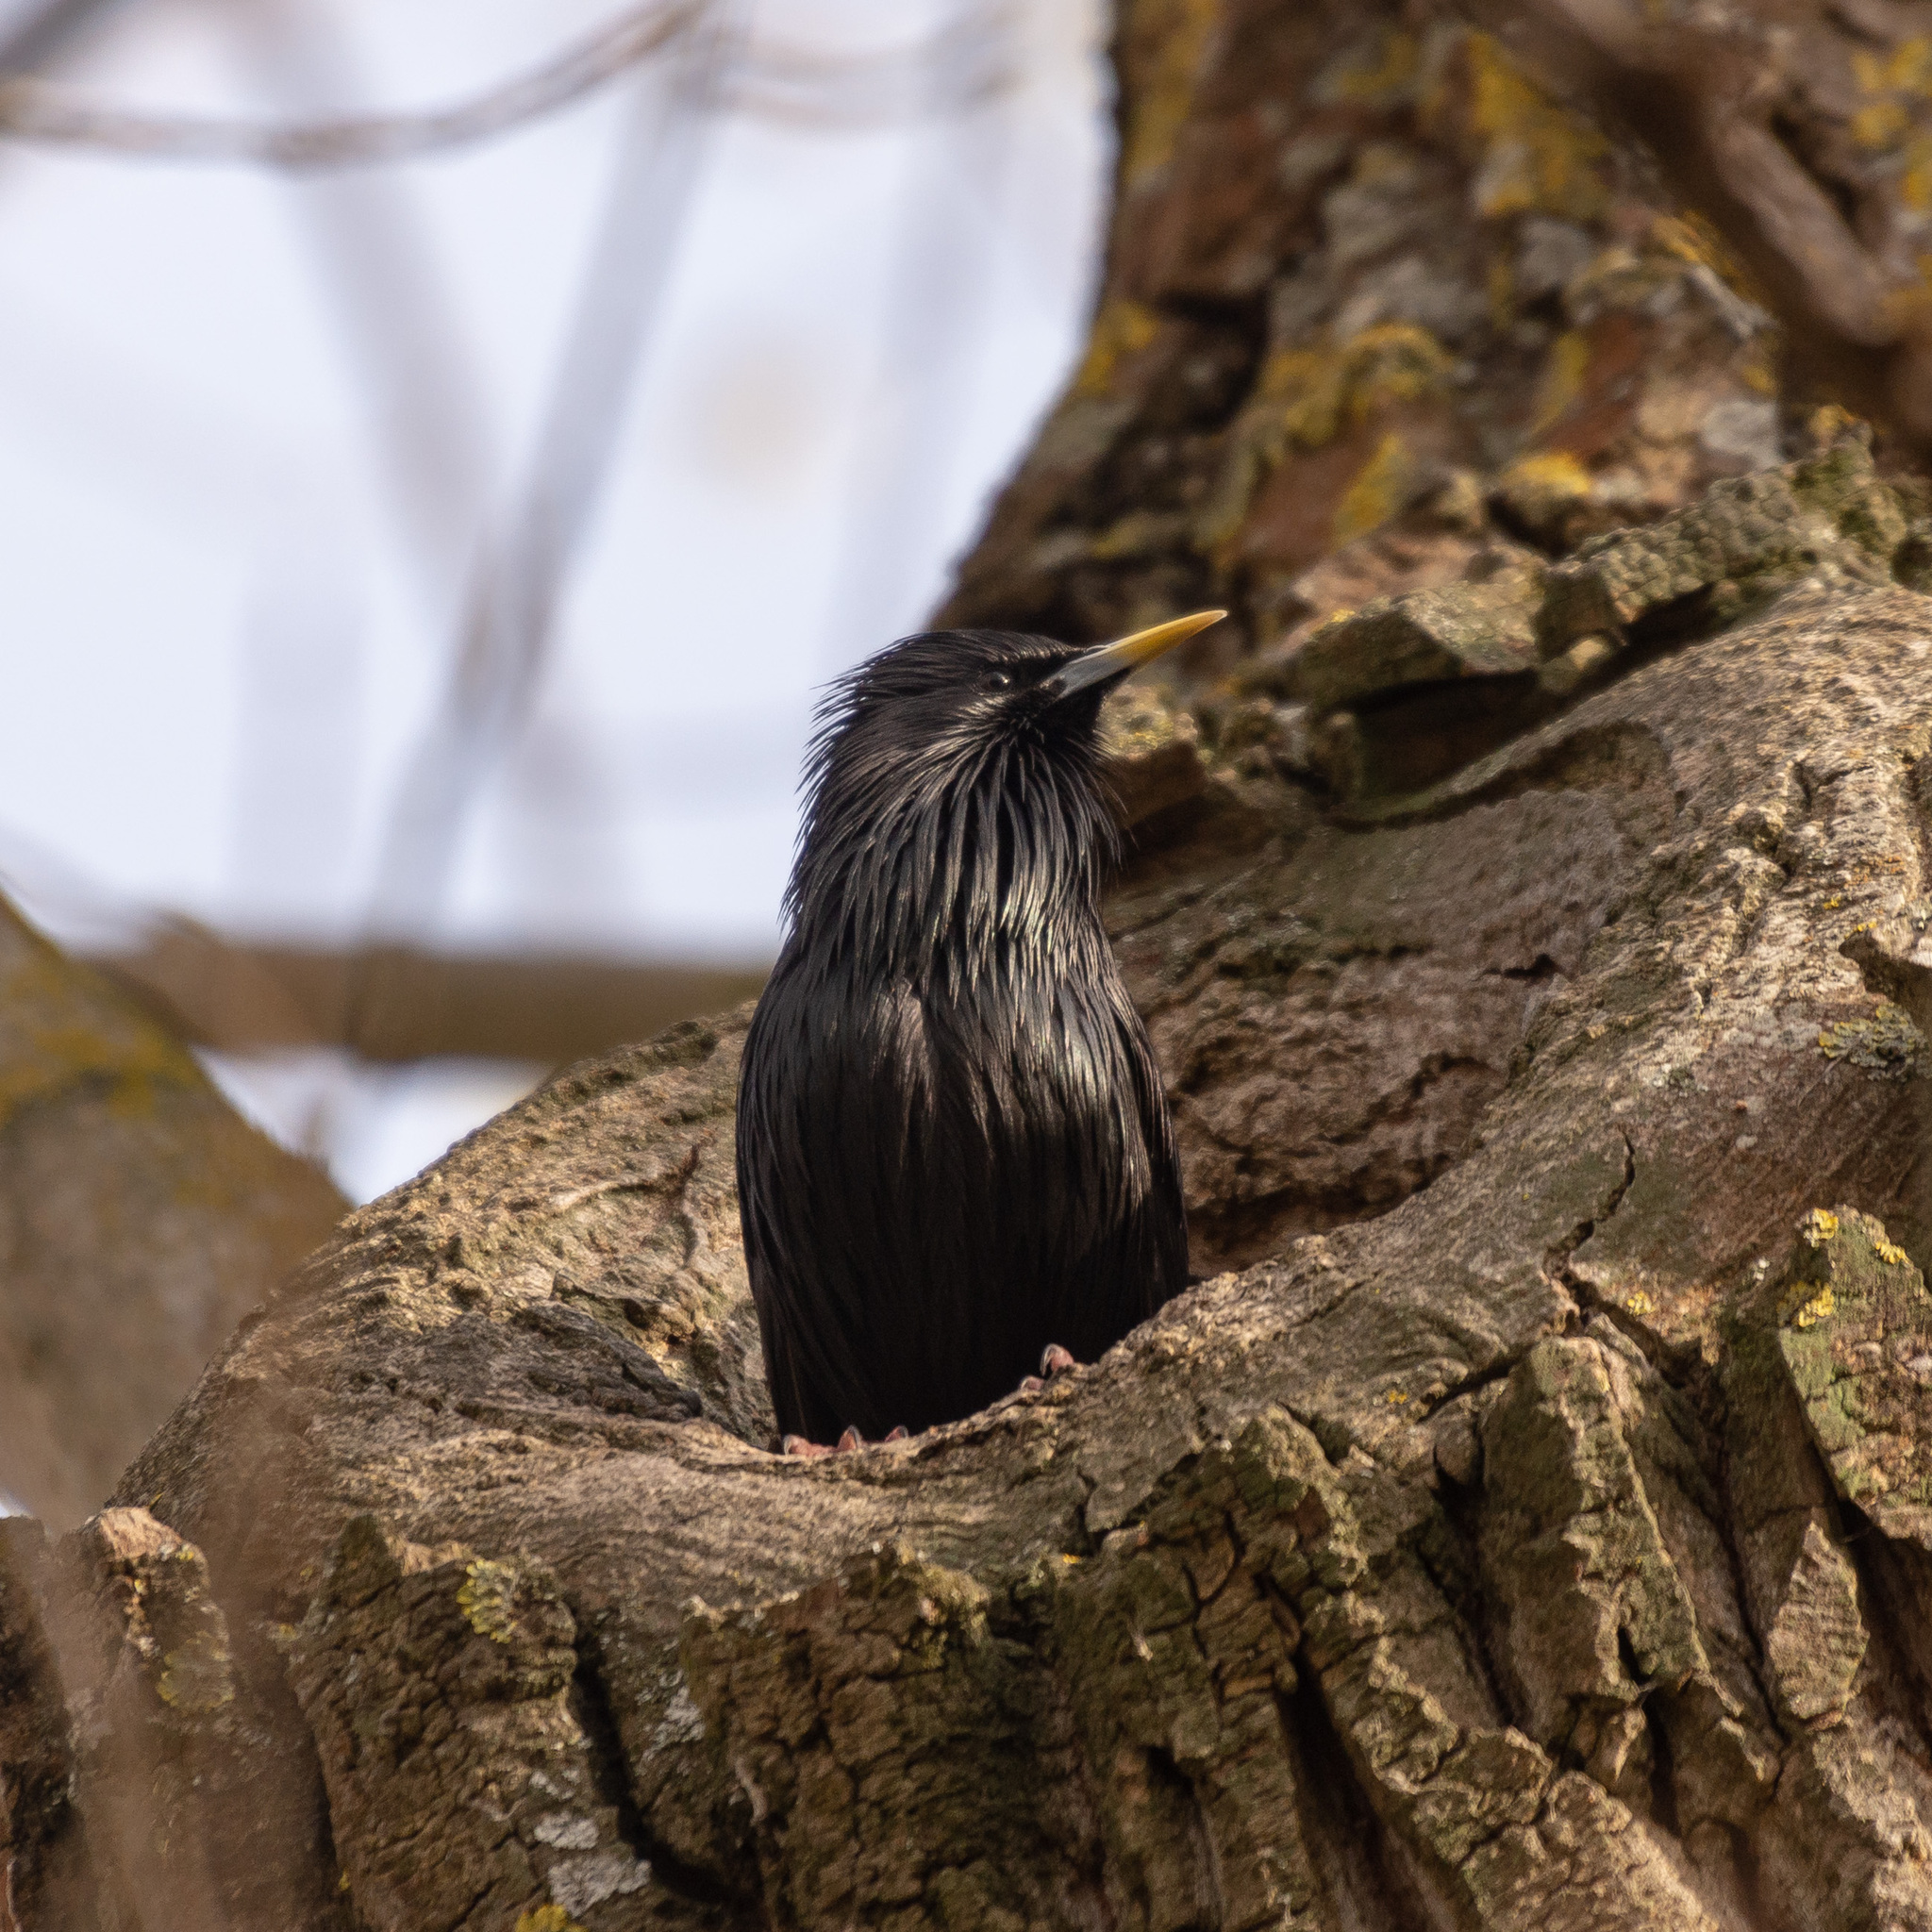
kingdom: Animalia
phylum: Chordata
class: Aves
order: Passeriformes
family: Sturnidae
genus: Sturnus
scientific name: Sturnus unicolor
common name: Spotless starling
